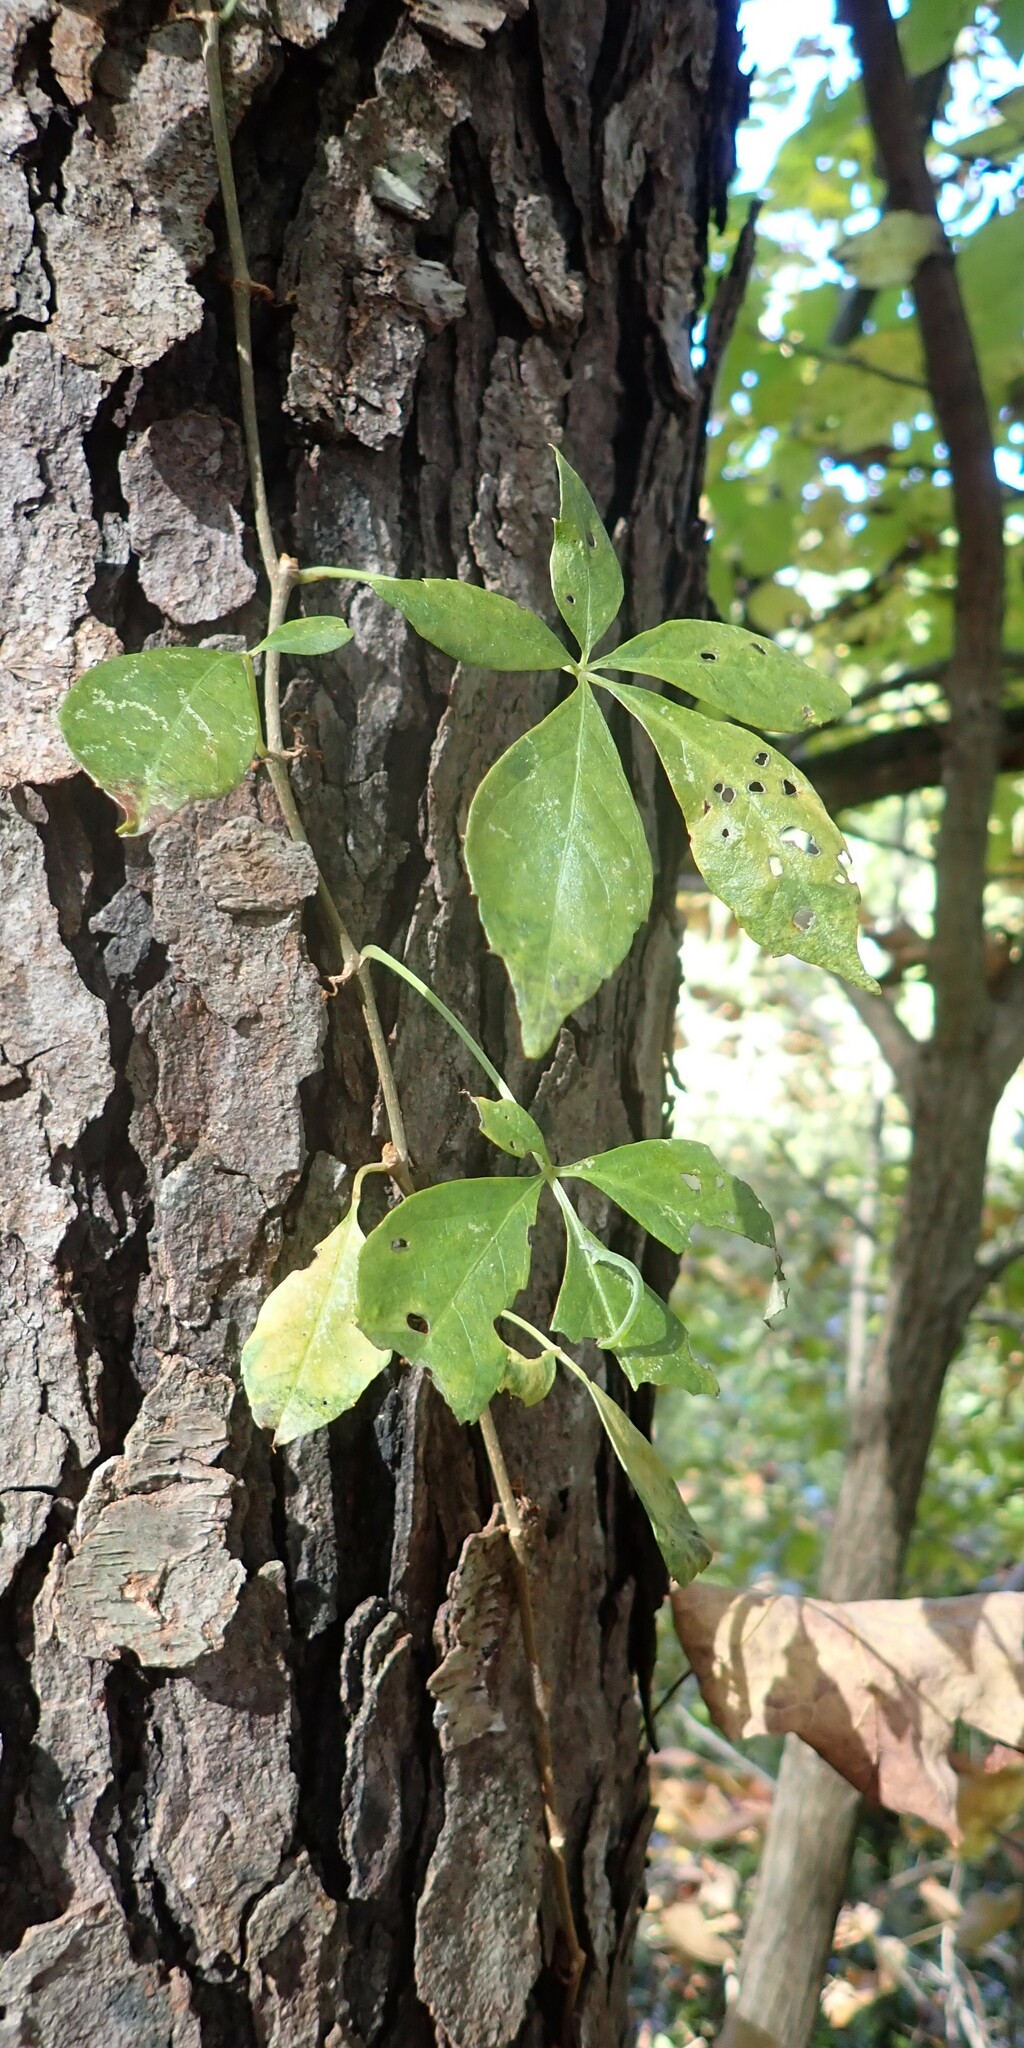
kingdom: Plantae
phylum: Tracheophyta
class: Magnoliopsida
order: Vitales
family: Vitaceae
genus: Parthenocissus
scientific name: Parthenocissus quinquefolia
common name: Virginia-creeper
